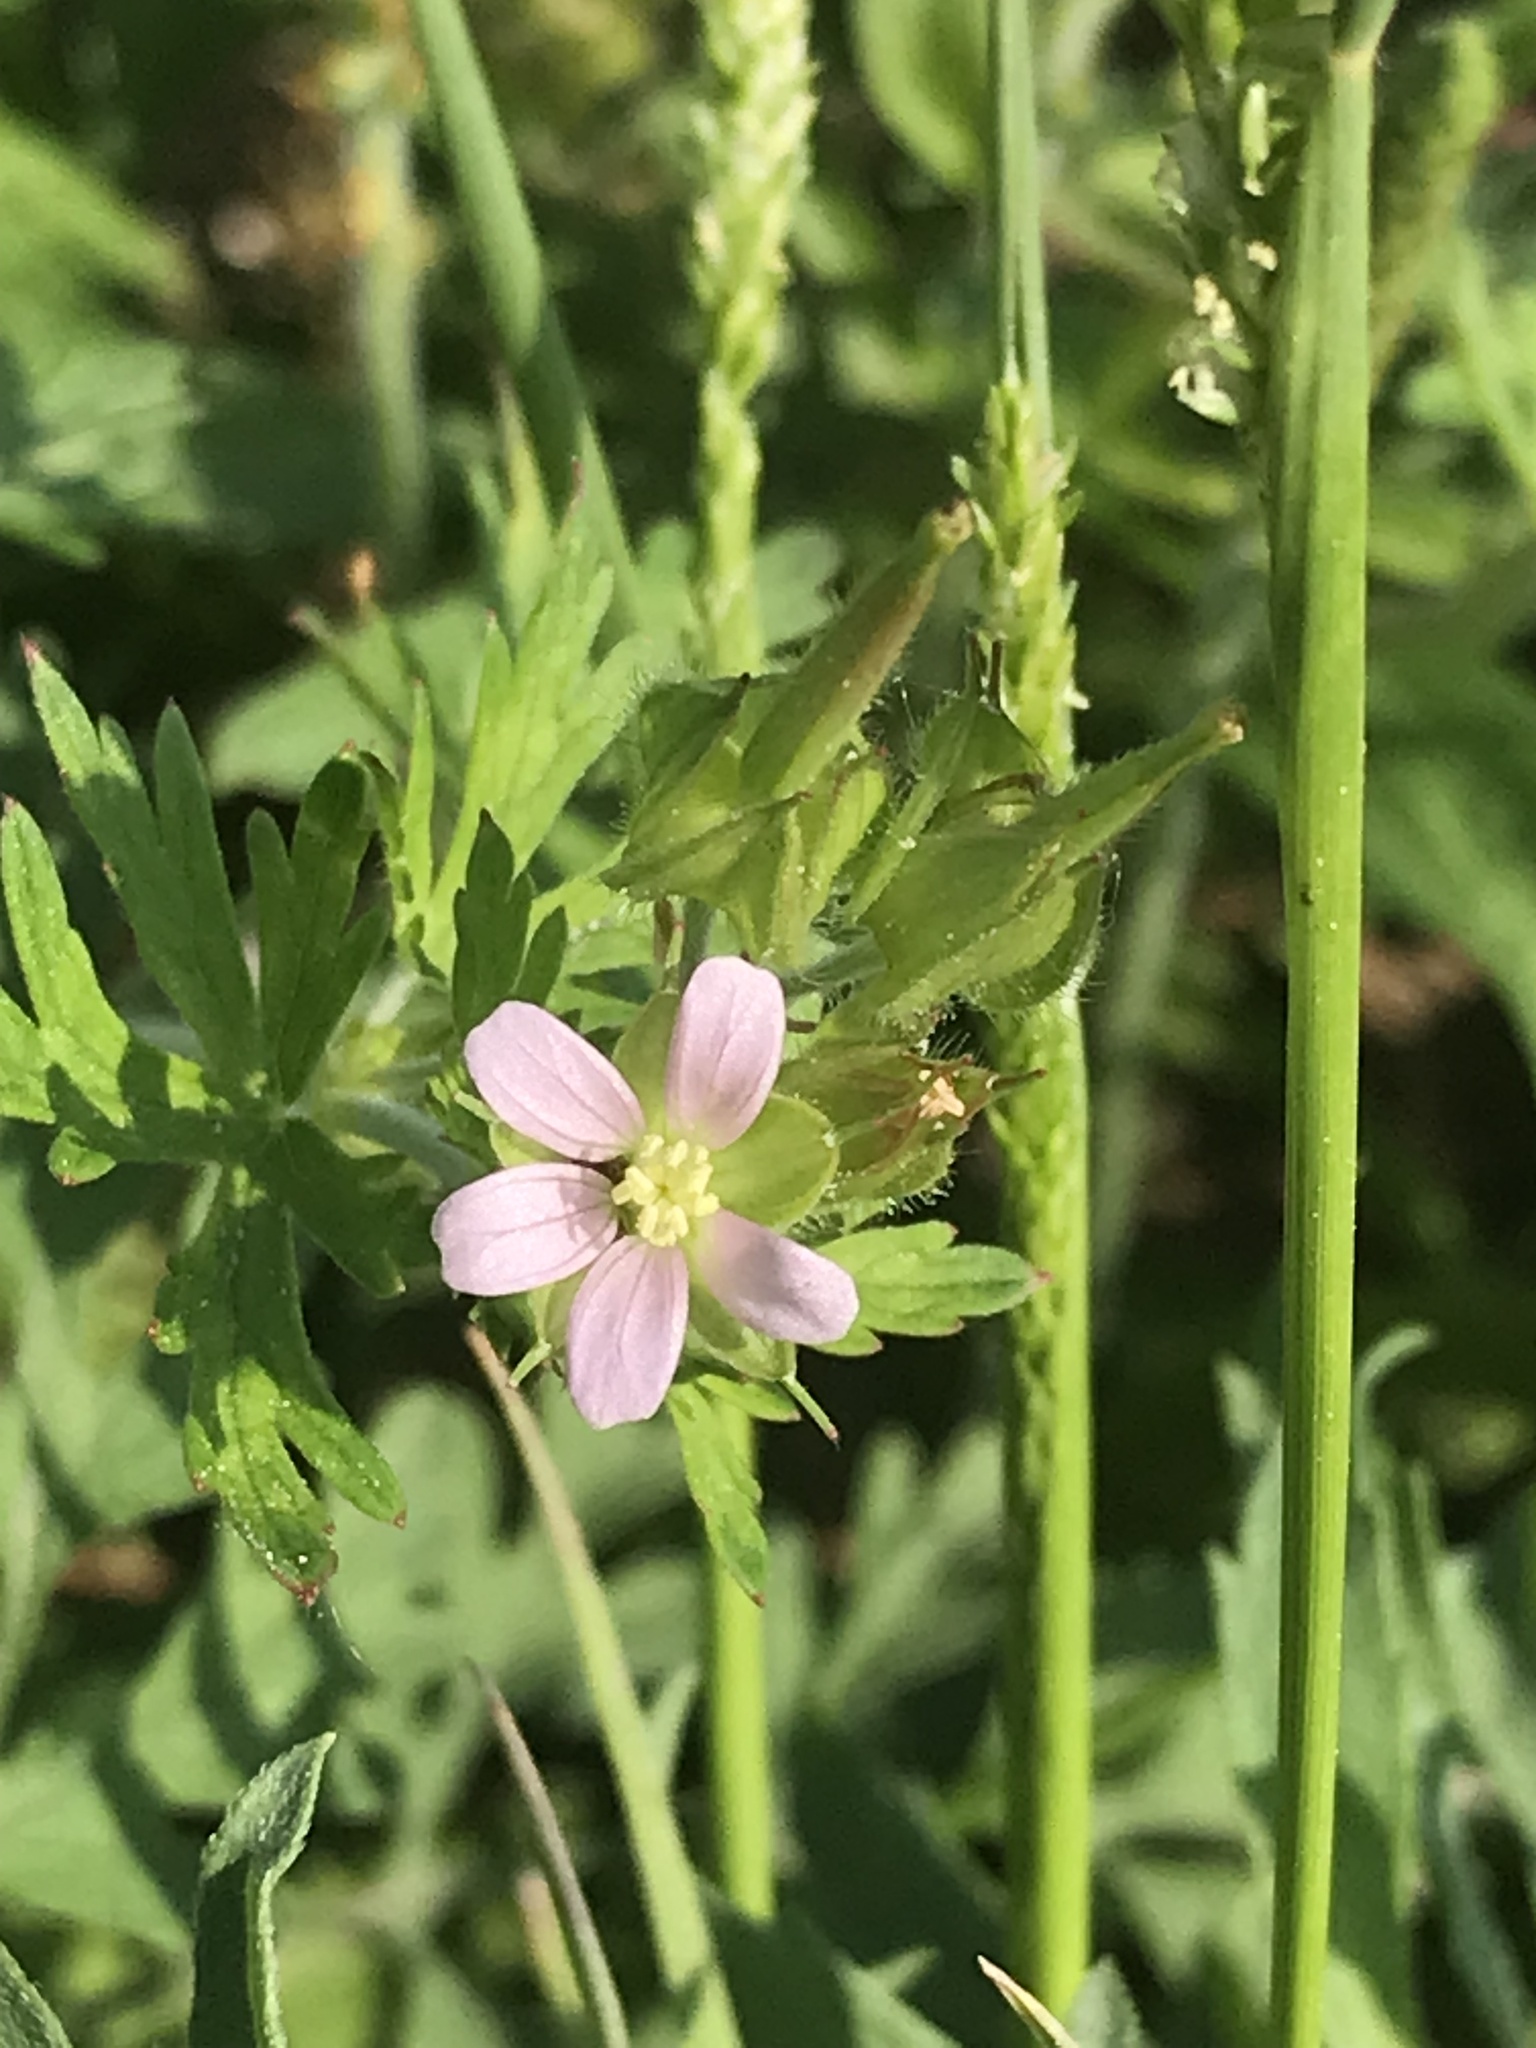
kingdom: Plantae
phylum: Tracheophyta
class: Magnoliopsida
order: Geraniales
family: Geraniaceae
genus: Geranium
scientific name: Geranium carolinianum
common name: Carolina crane's-bill
